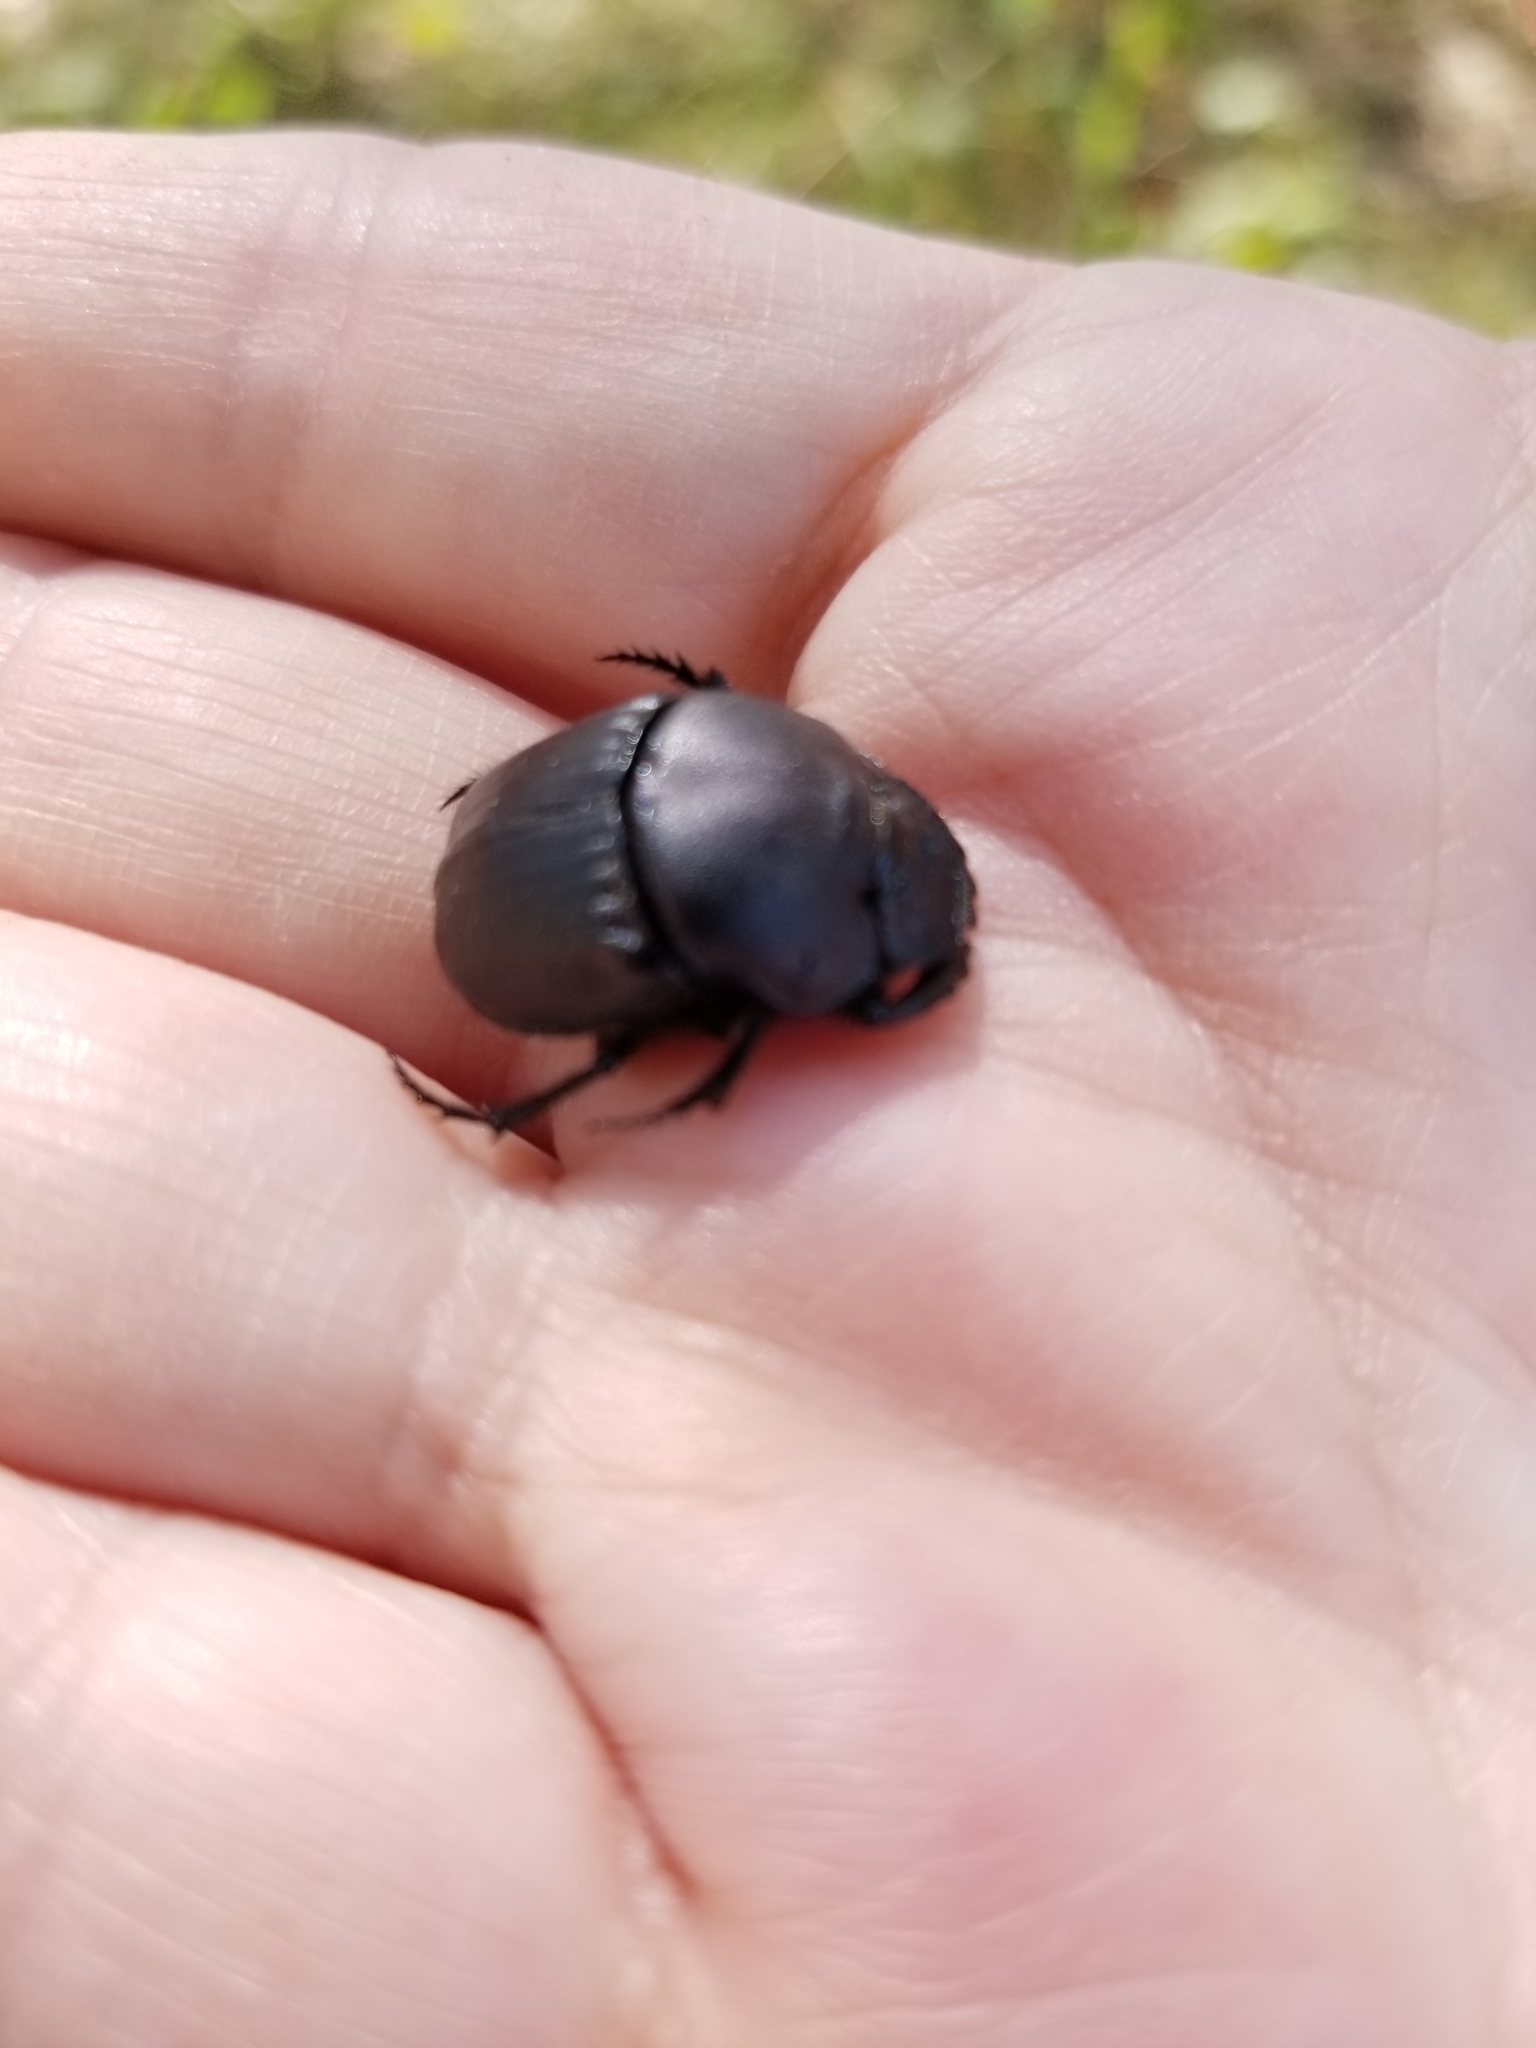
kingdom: Animalia
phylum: Arthropoda
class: Insecta
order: Coleoptera
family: Scarabaeidae
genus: Phanaeus
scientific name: Phanaeus texensis
